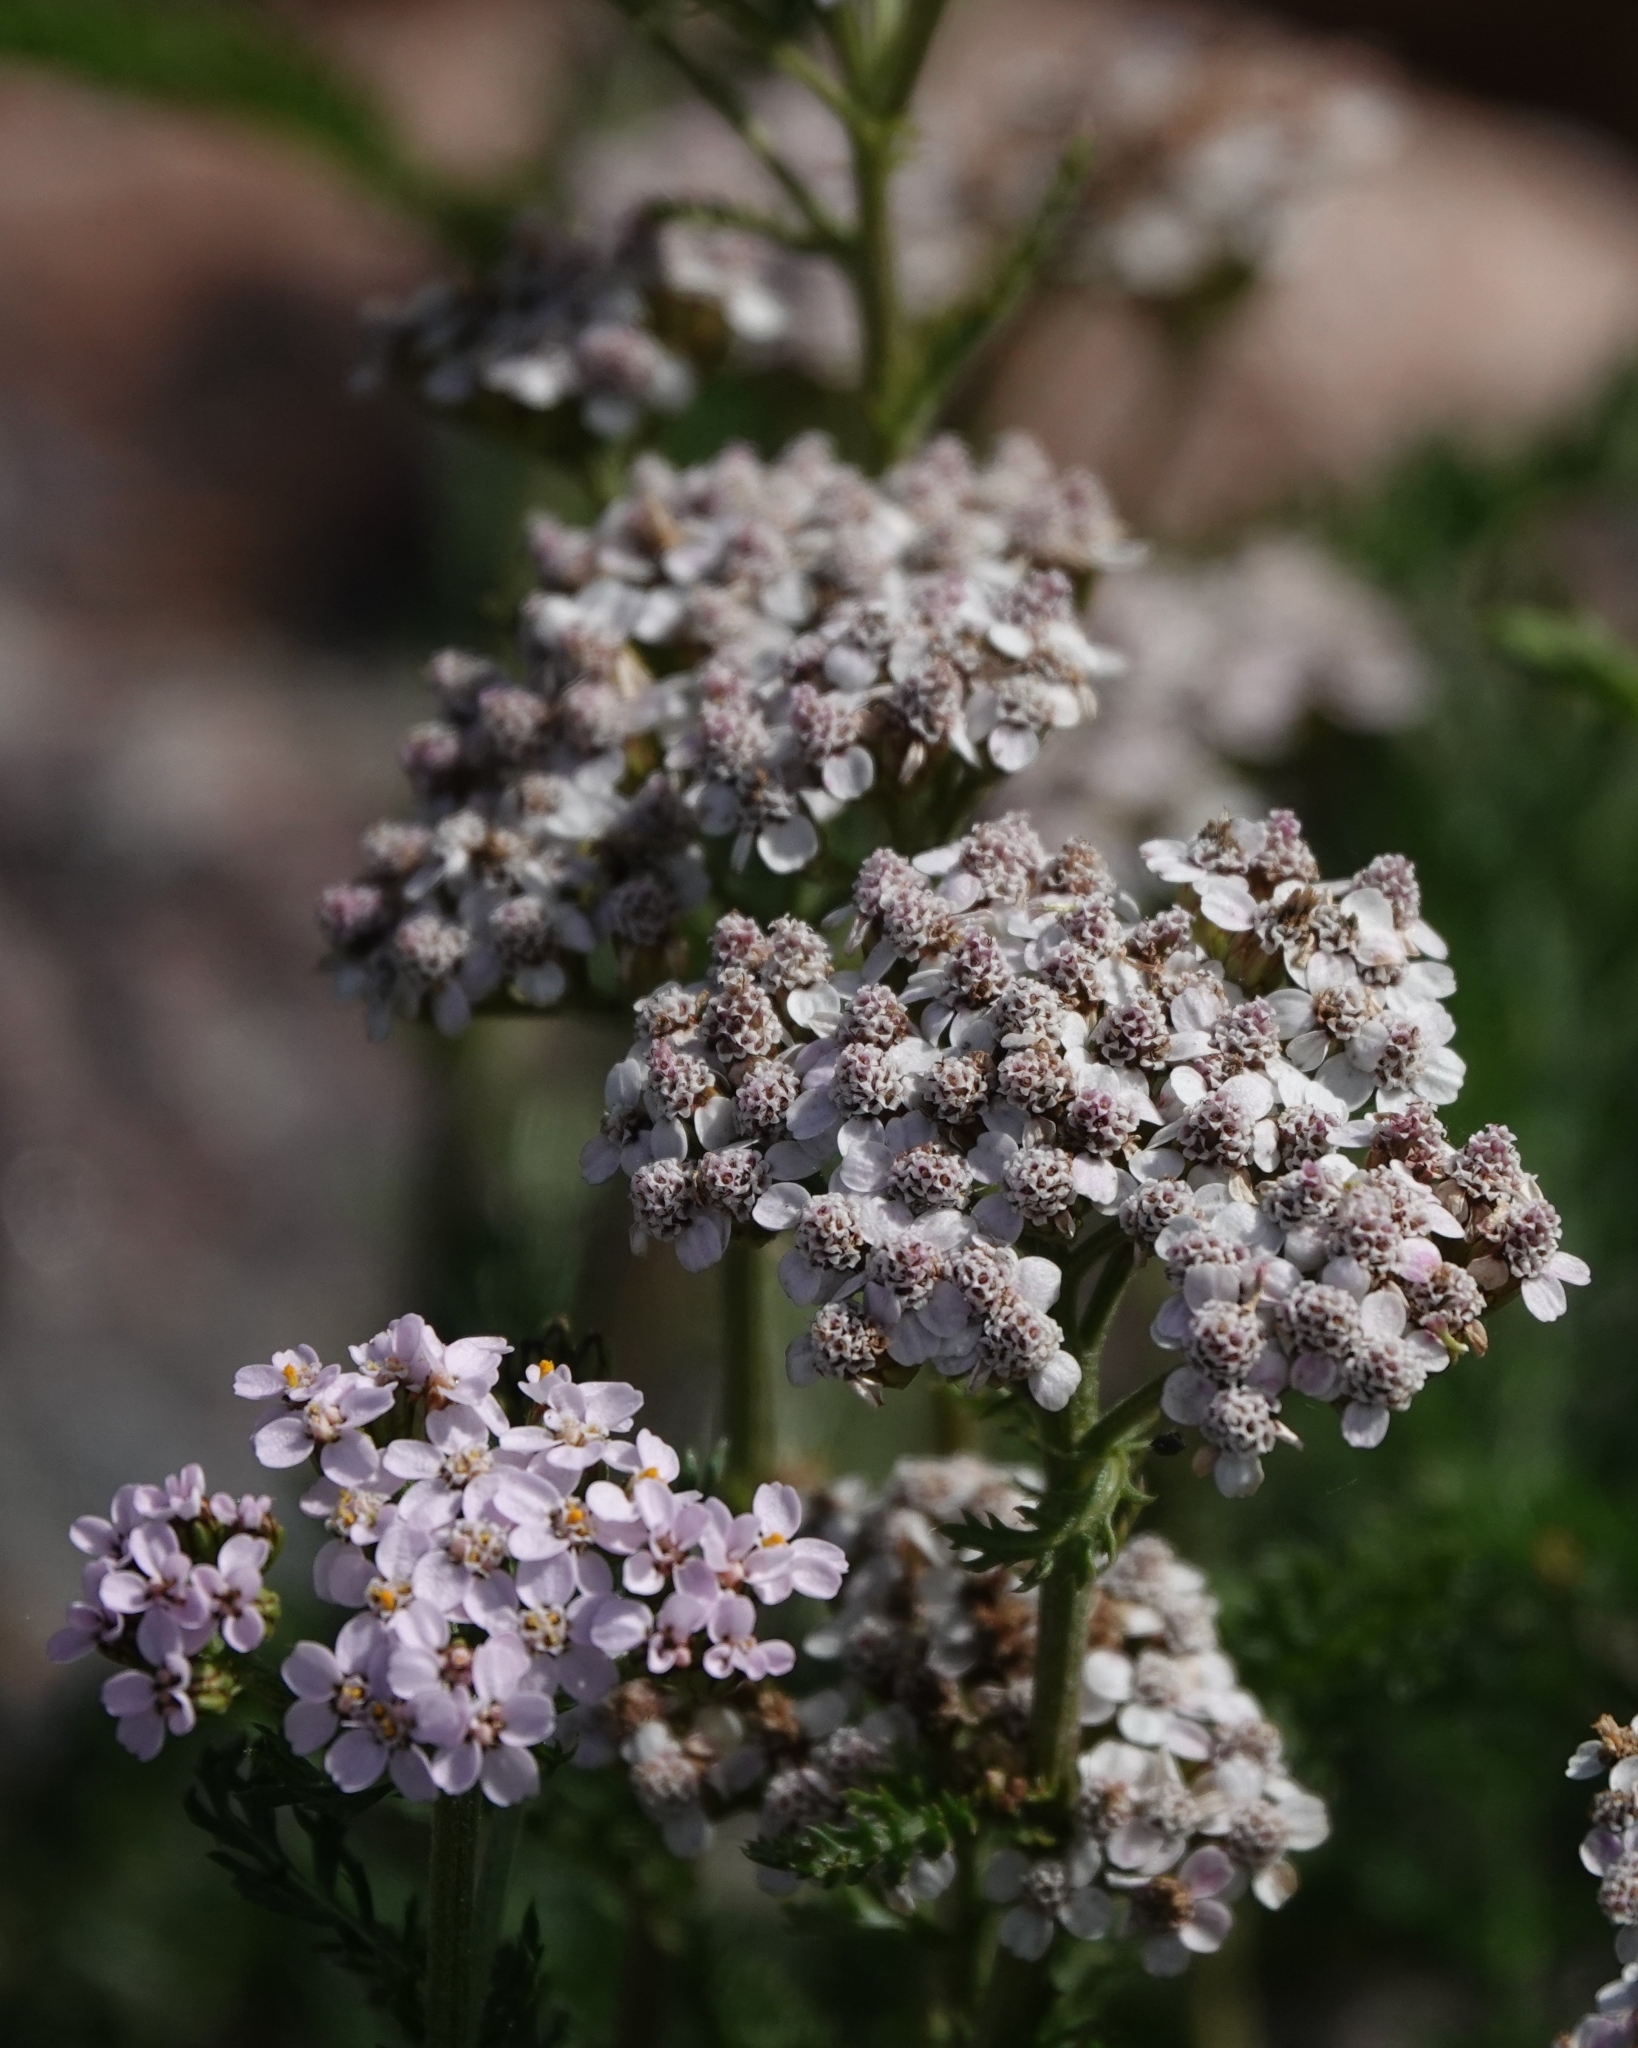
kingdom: Plantae
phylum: Tracheophyta
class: Magnoliopsida
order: Asterales
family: Asteraceae
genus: Achillea
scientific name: Achillea millefolium
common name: Yarrow
